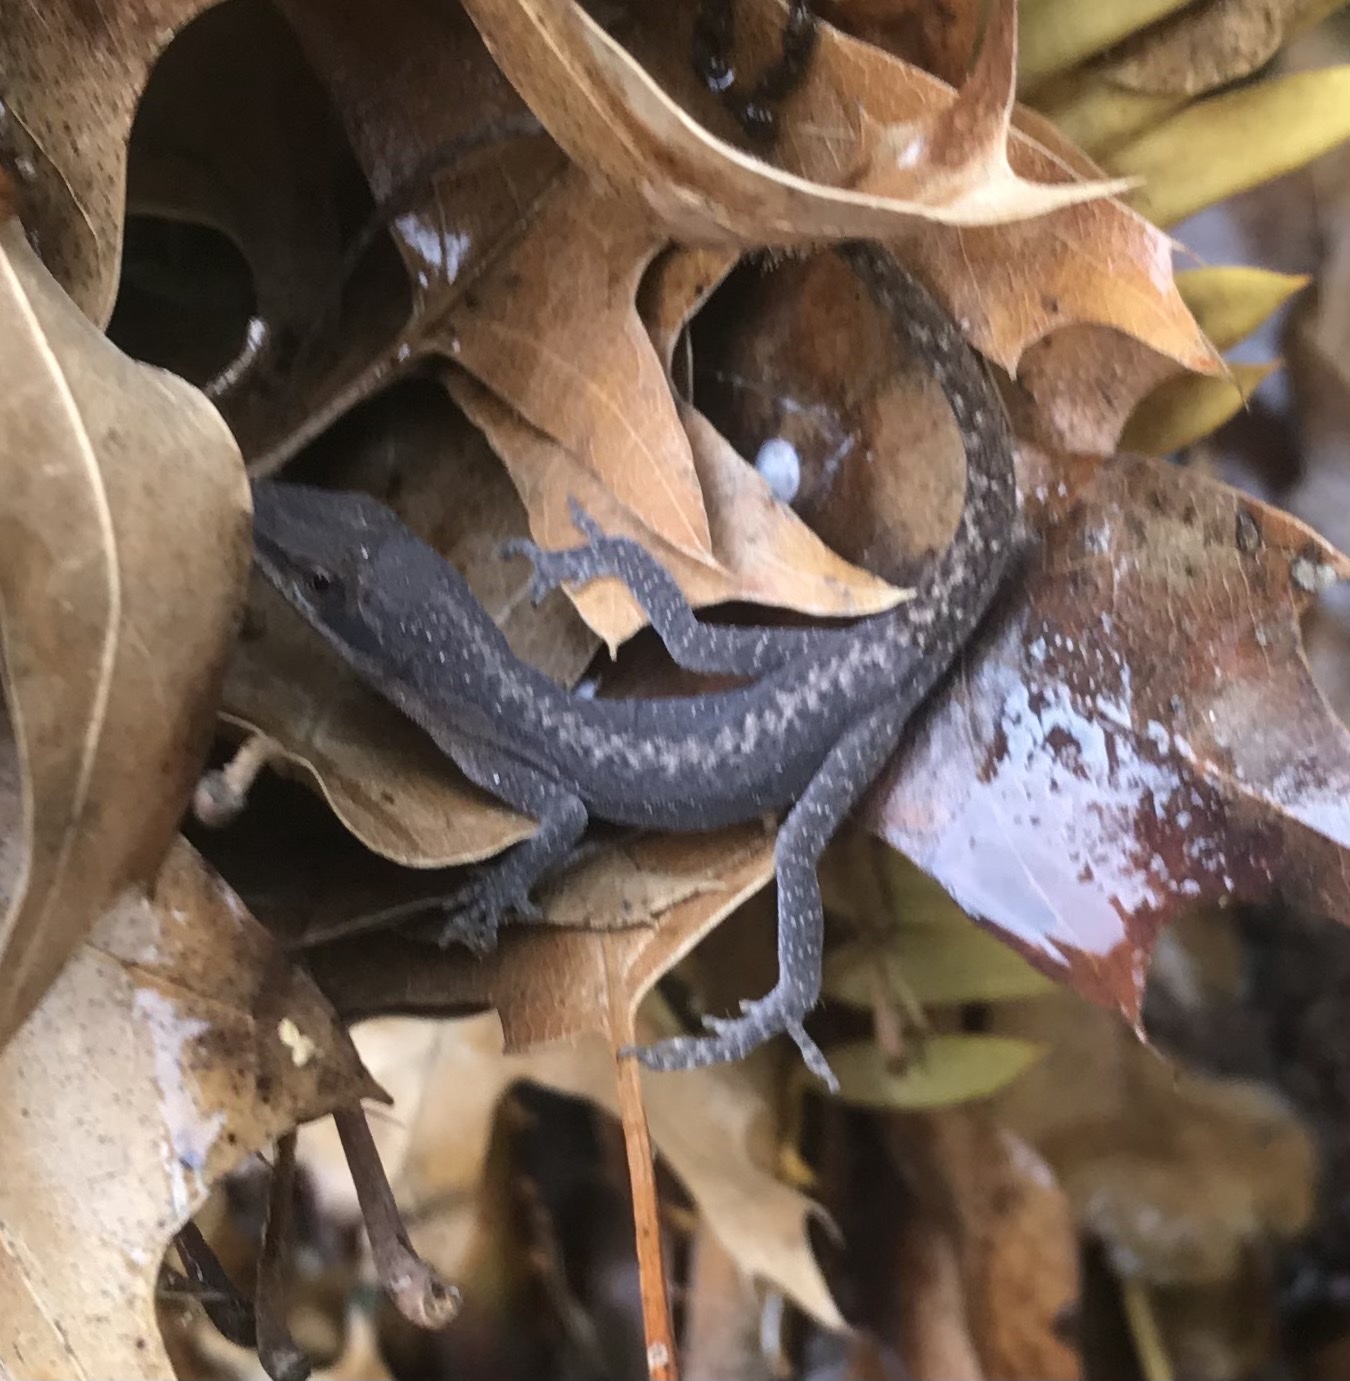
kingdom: Animalia
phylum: Chordata
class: Squamata
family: Dactyloidae
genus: Anolis
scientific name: Anolis carolinensis
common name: Green anole
